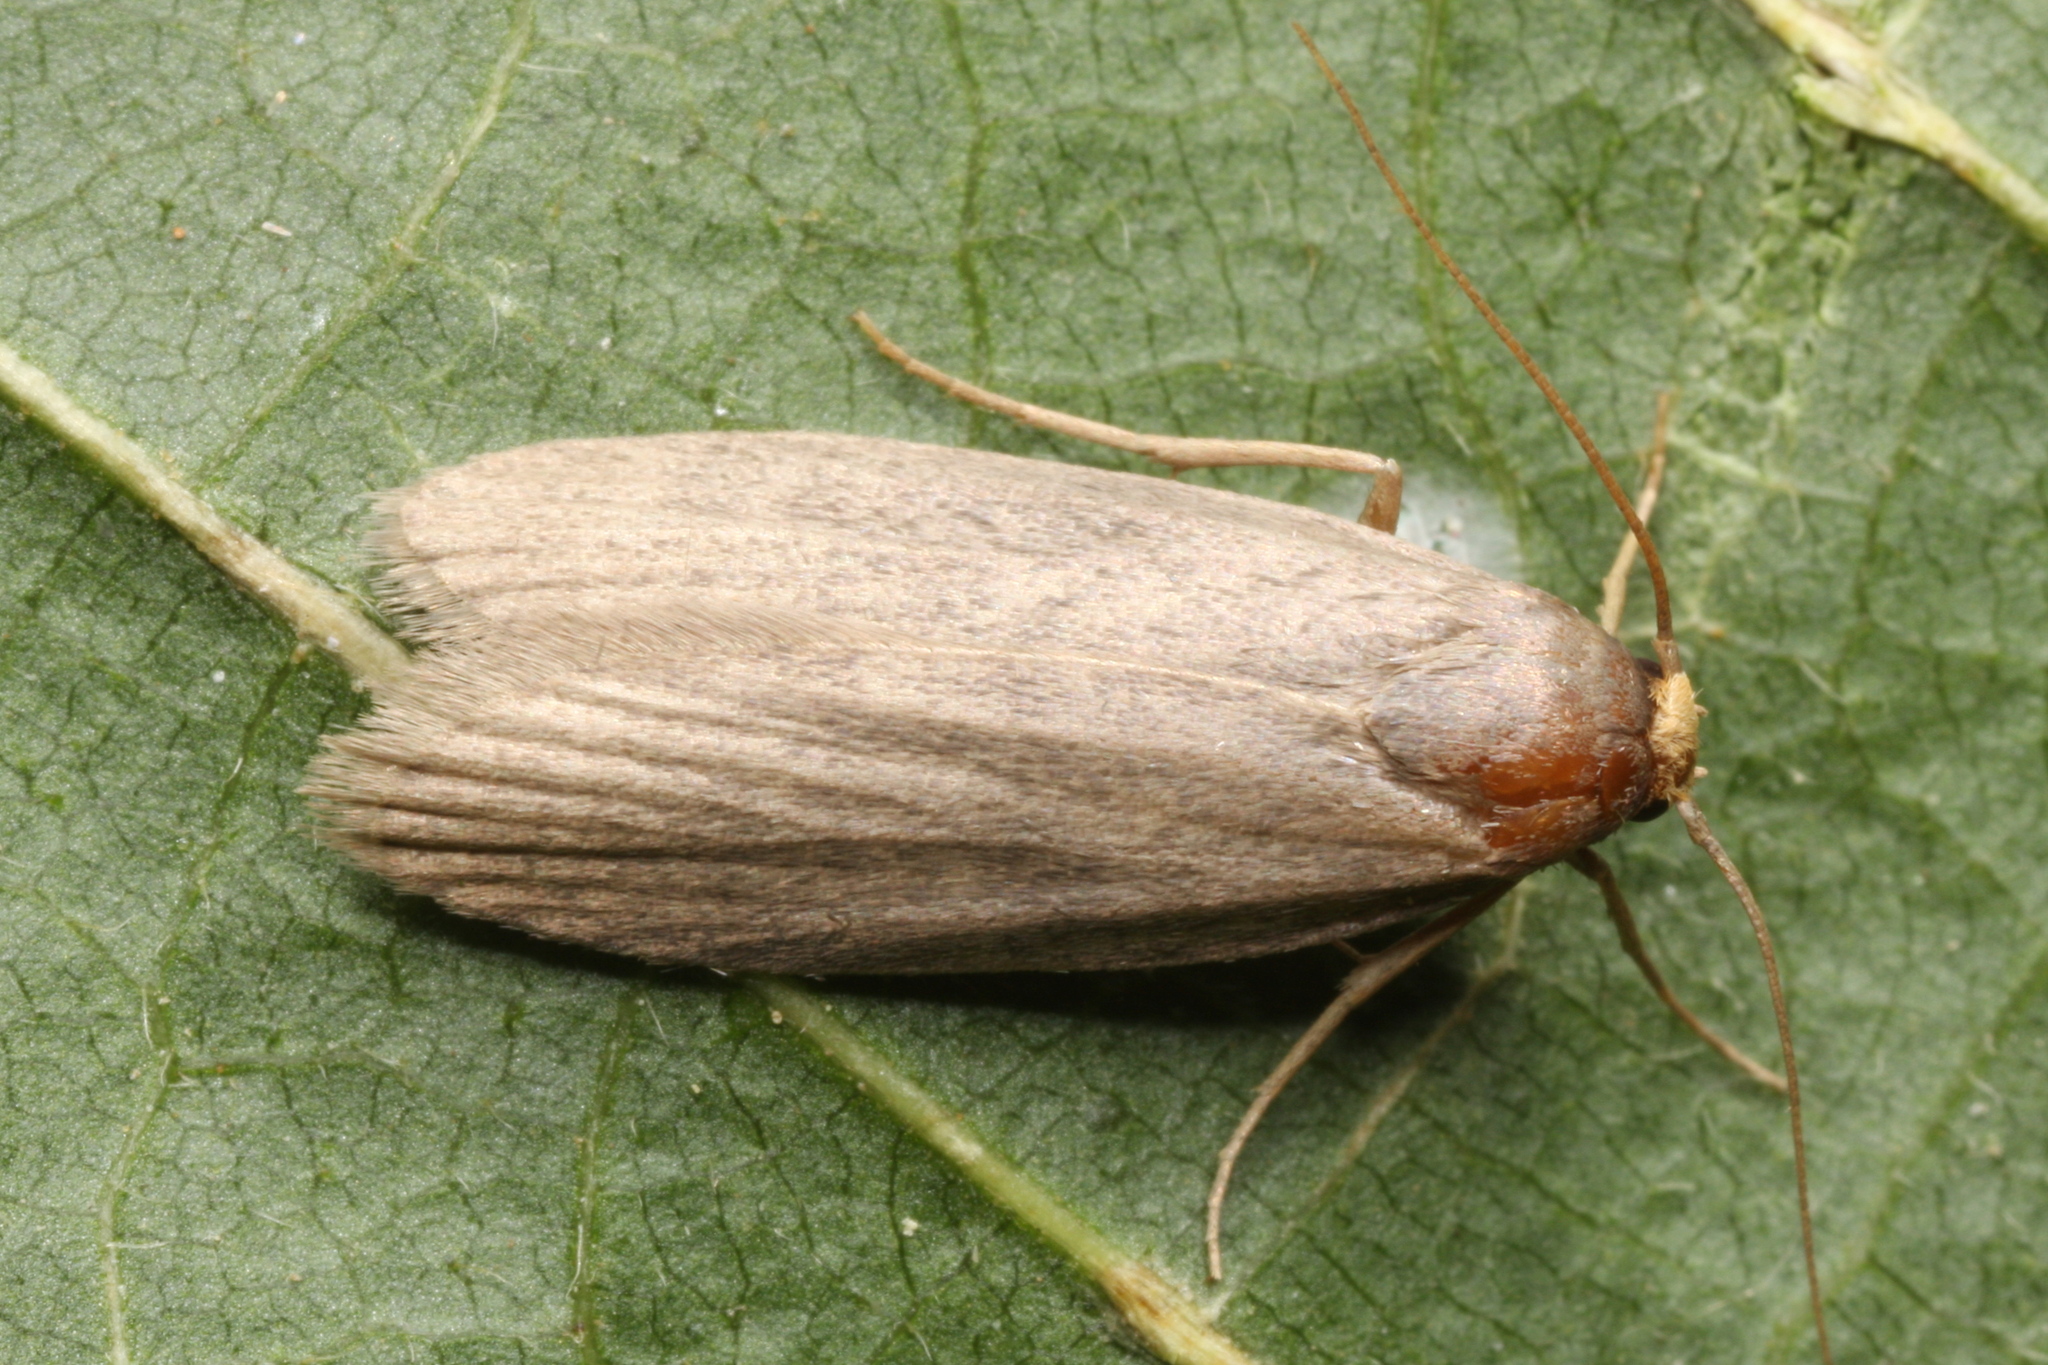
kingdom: Animalia
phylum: Arthropoda
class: Insecta
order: Lepidoptera
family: Pyralidae
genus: Achroia
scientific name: Achroia grisella
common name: Lesser wax moth
